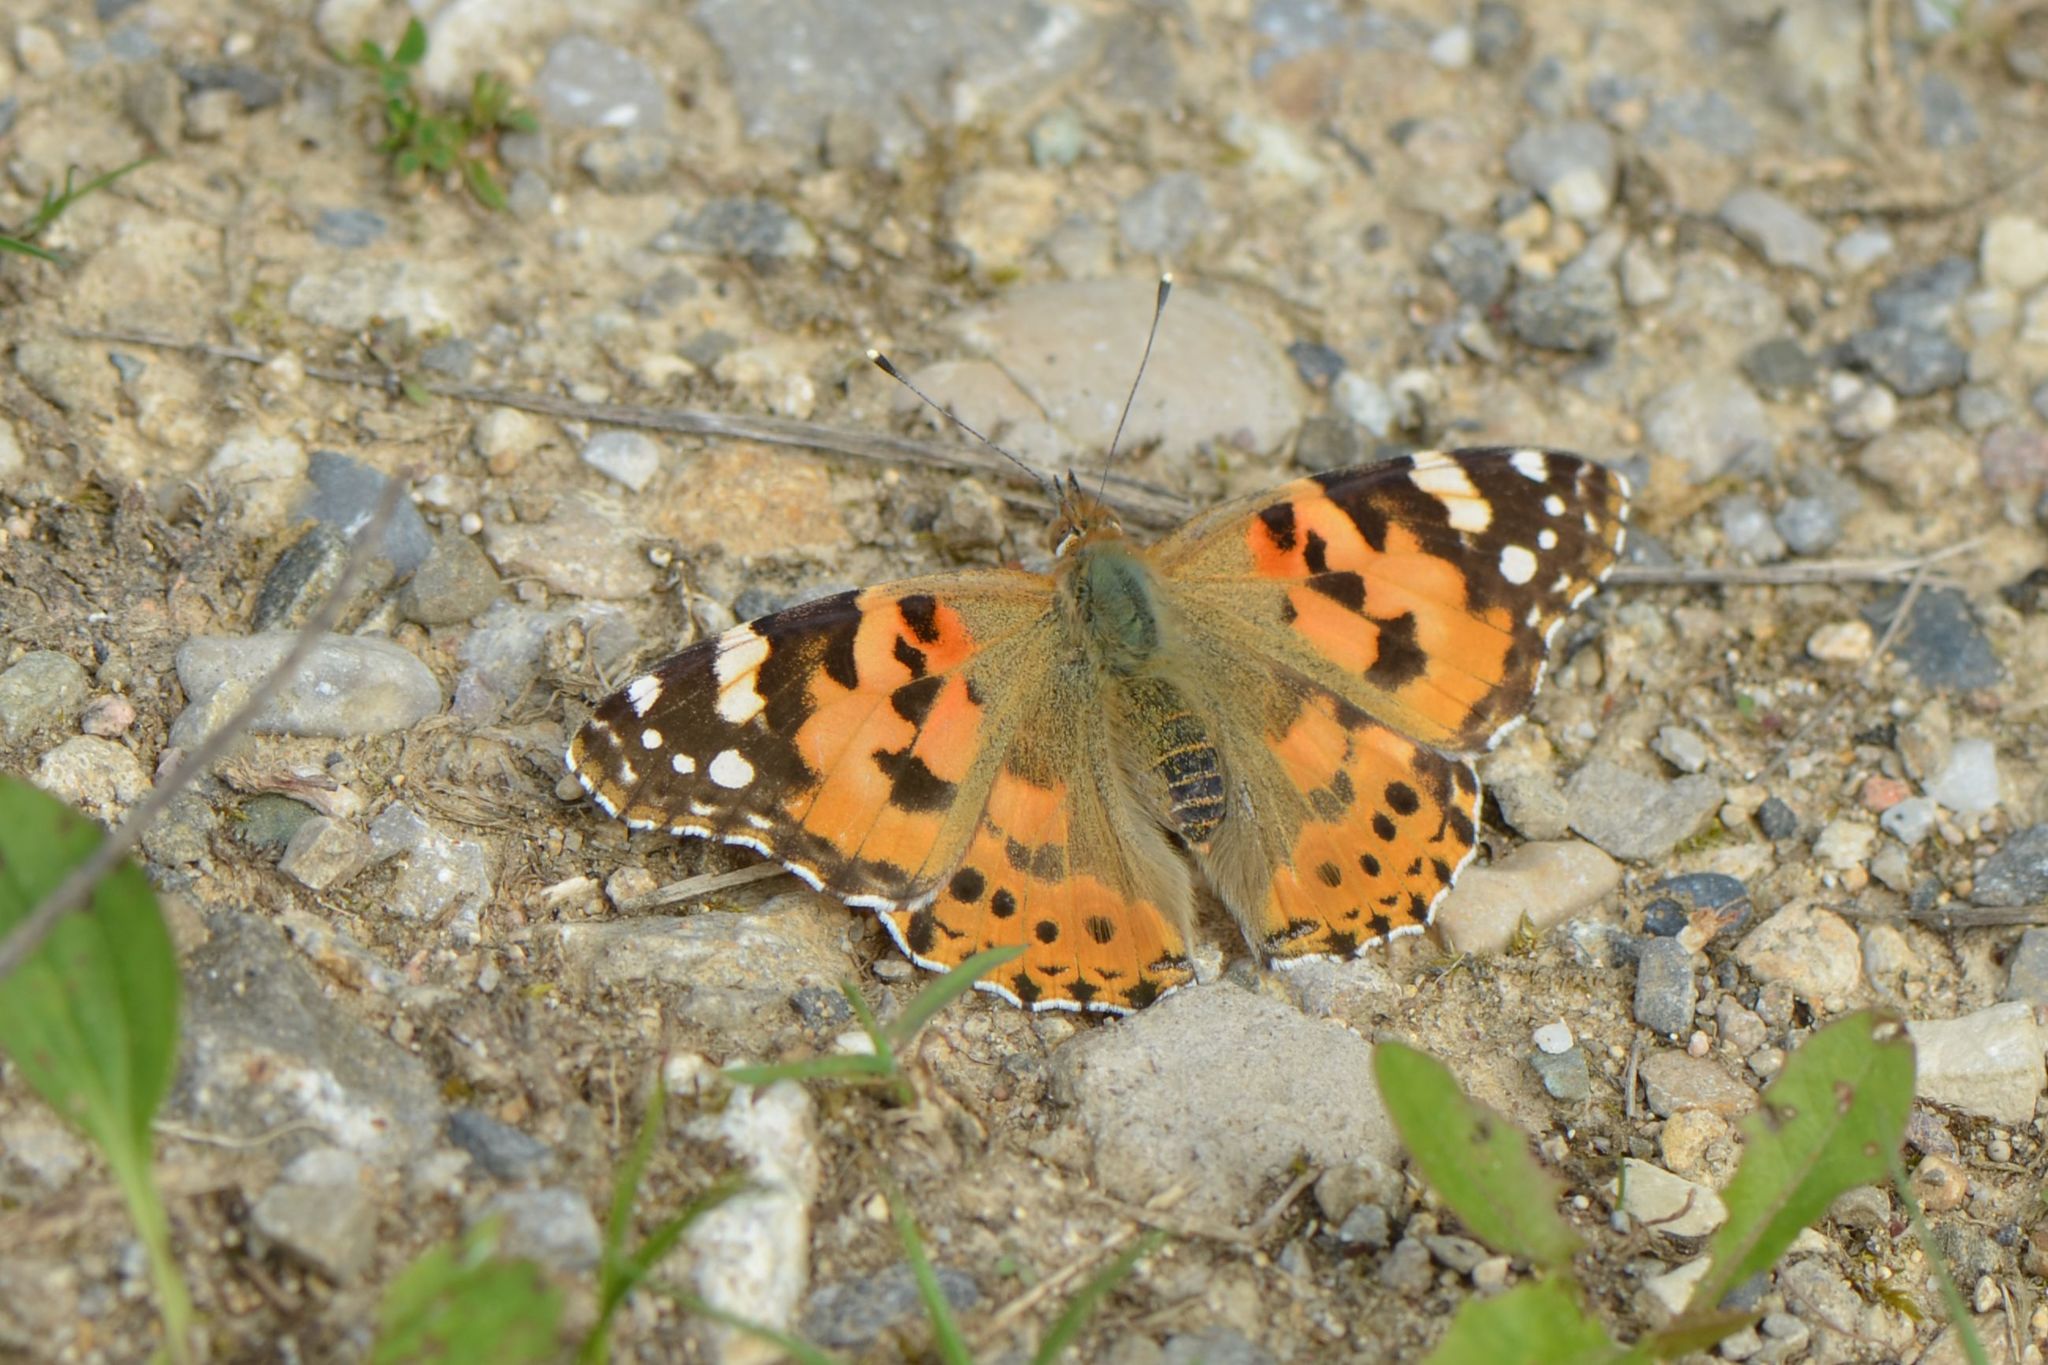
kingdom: Animalia
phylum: Arthropoda
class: Insecta
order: Lepidoptera
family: Nymphalidae
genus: Vanessa
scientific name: Vanessa cardui
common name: Painted lady
